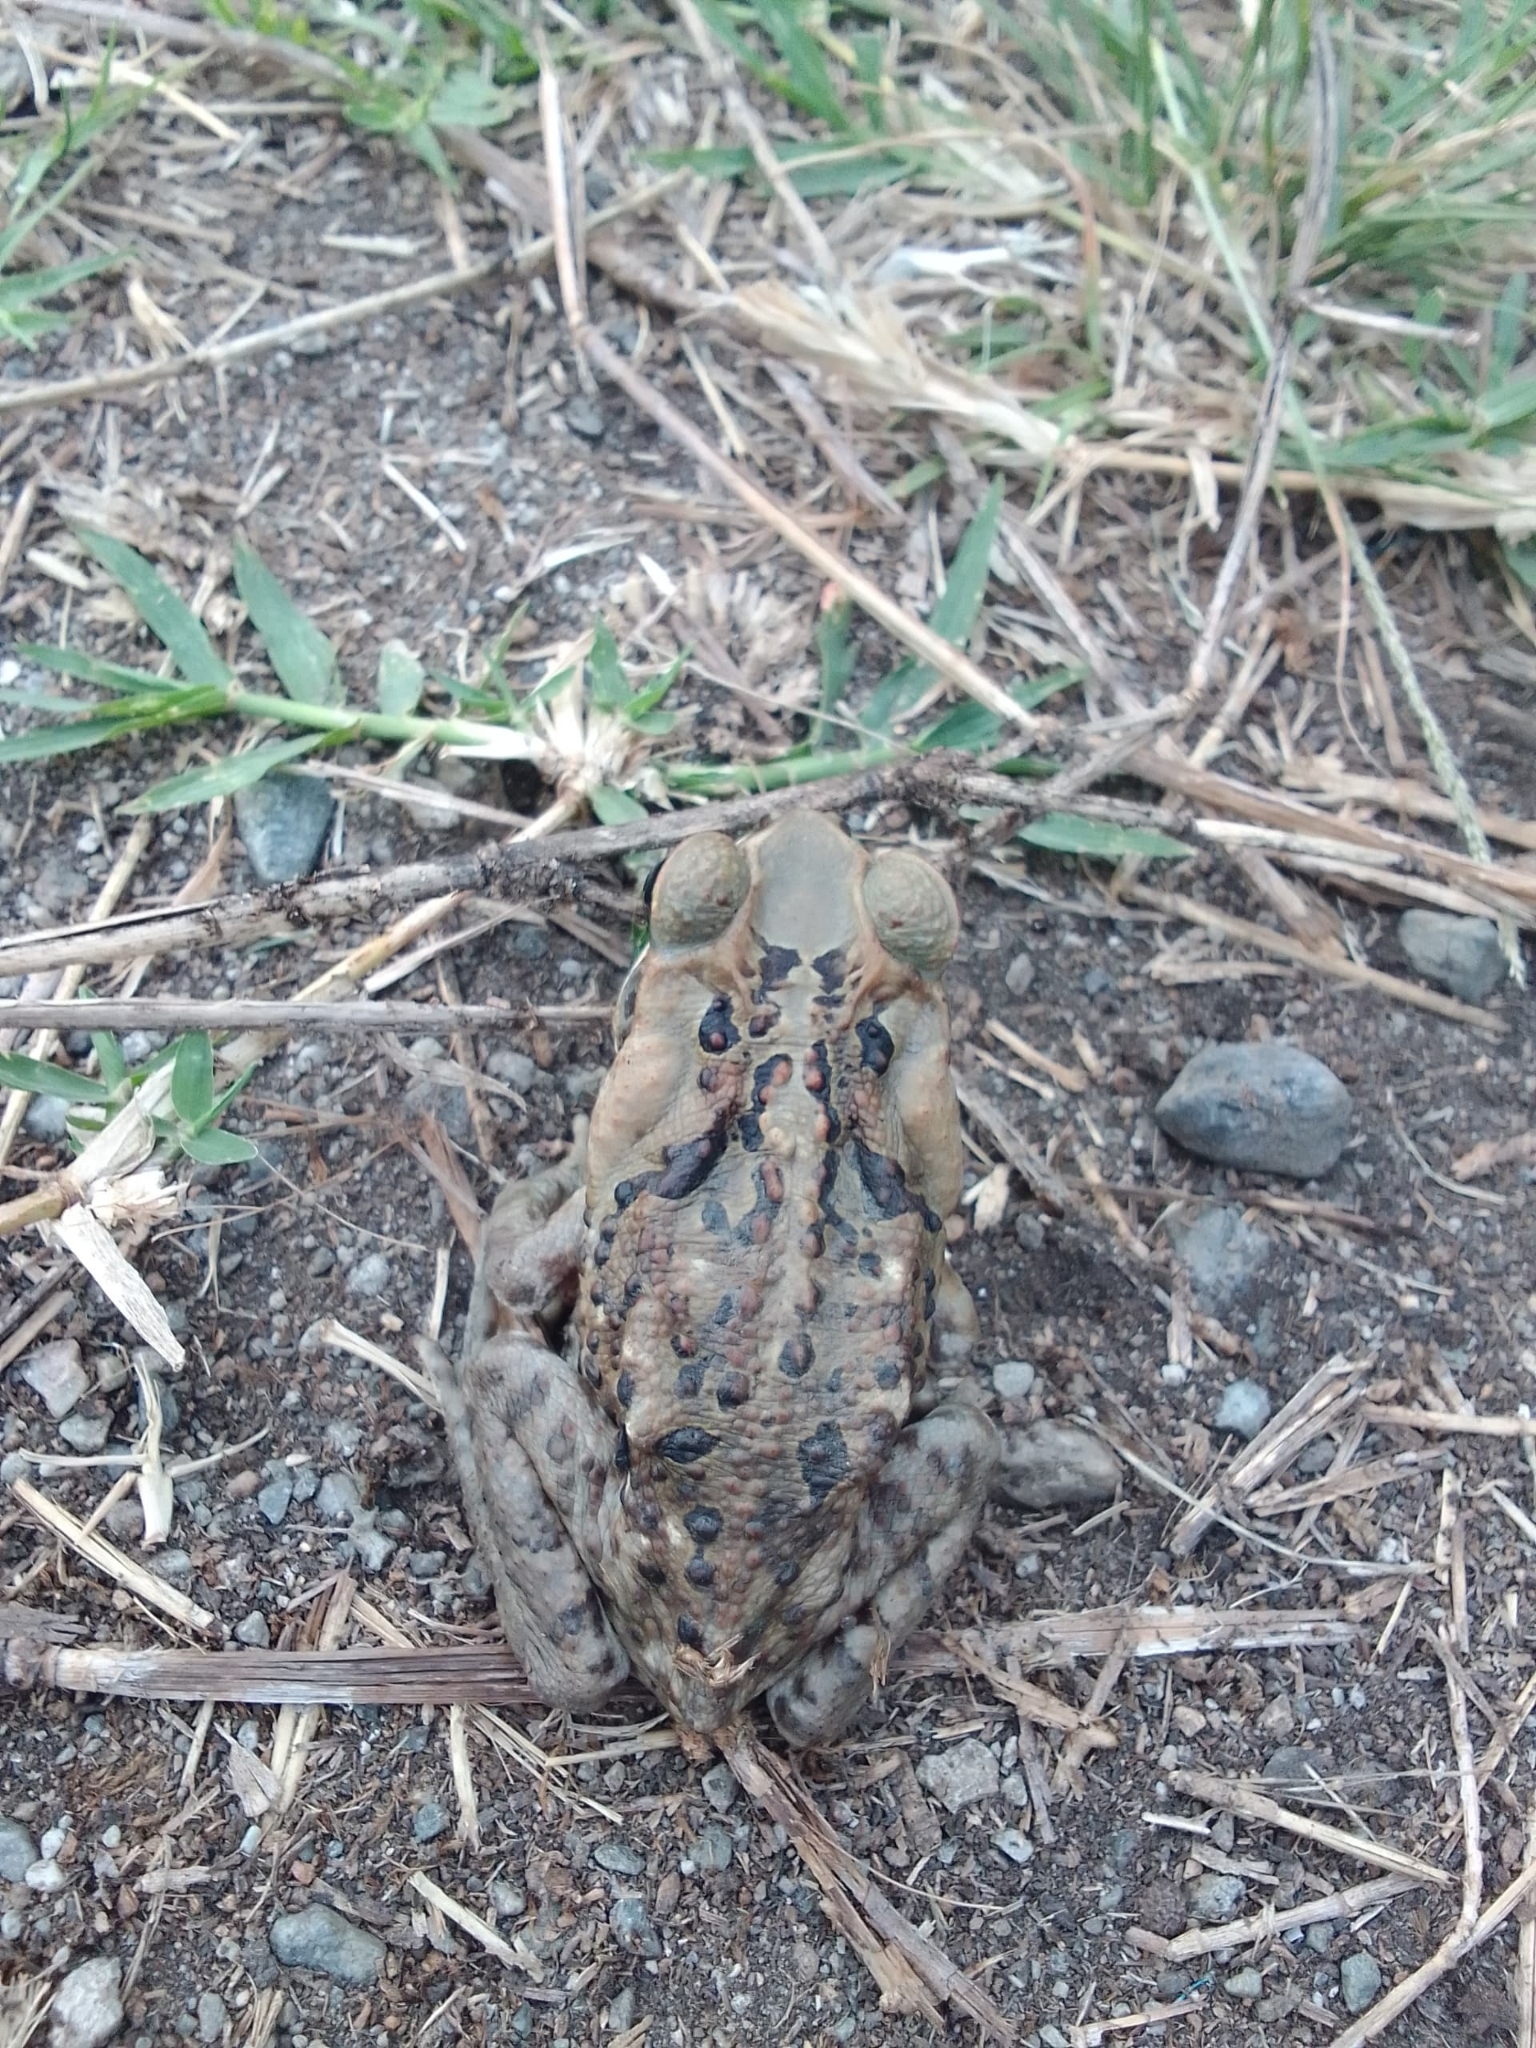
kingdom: Animalia
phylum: Chordata
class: Amphibia
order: Anura
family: Bufonidae
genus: Rhinella
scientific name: Rhinella horribilis
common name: Mesoamerican cane toad
